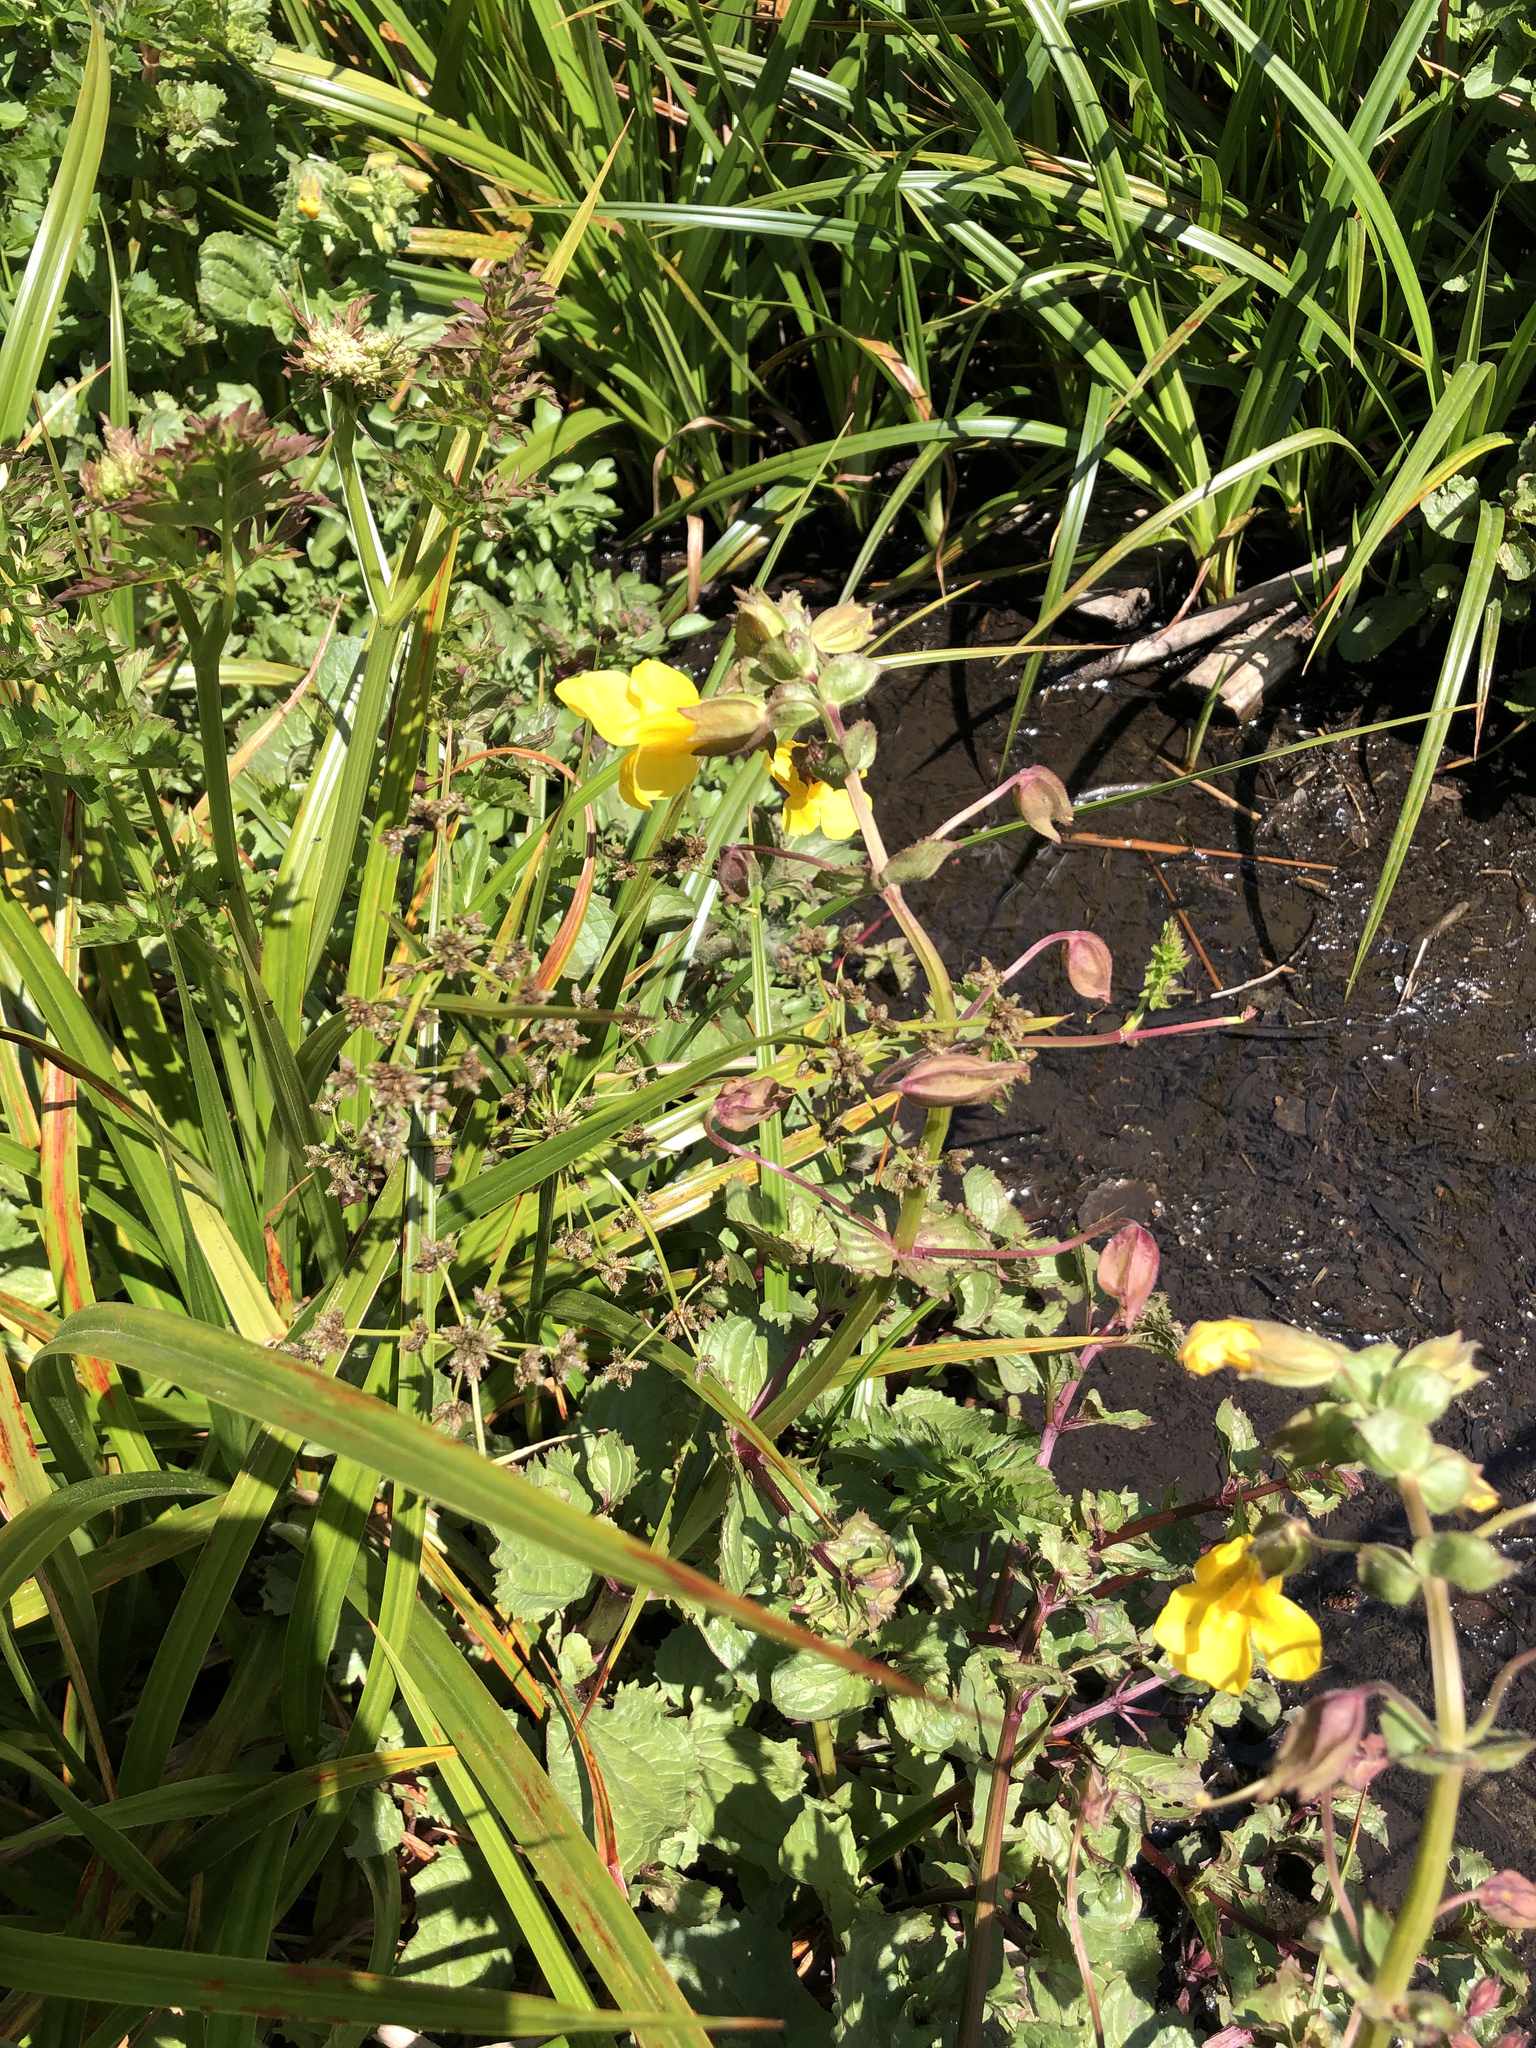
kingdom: Plantae
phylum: Tracheophyta
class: Magnoliopsida
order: Lamiales
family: Phrymaceae
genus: Erythranthe
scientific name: Erythranthe guttata
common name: Monkeyflower
